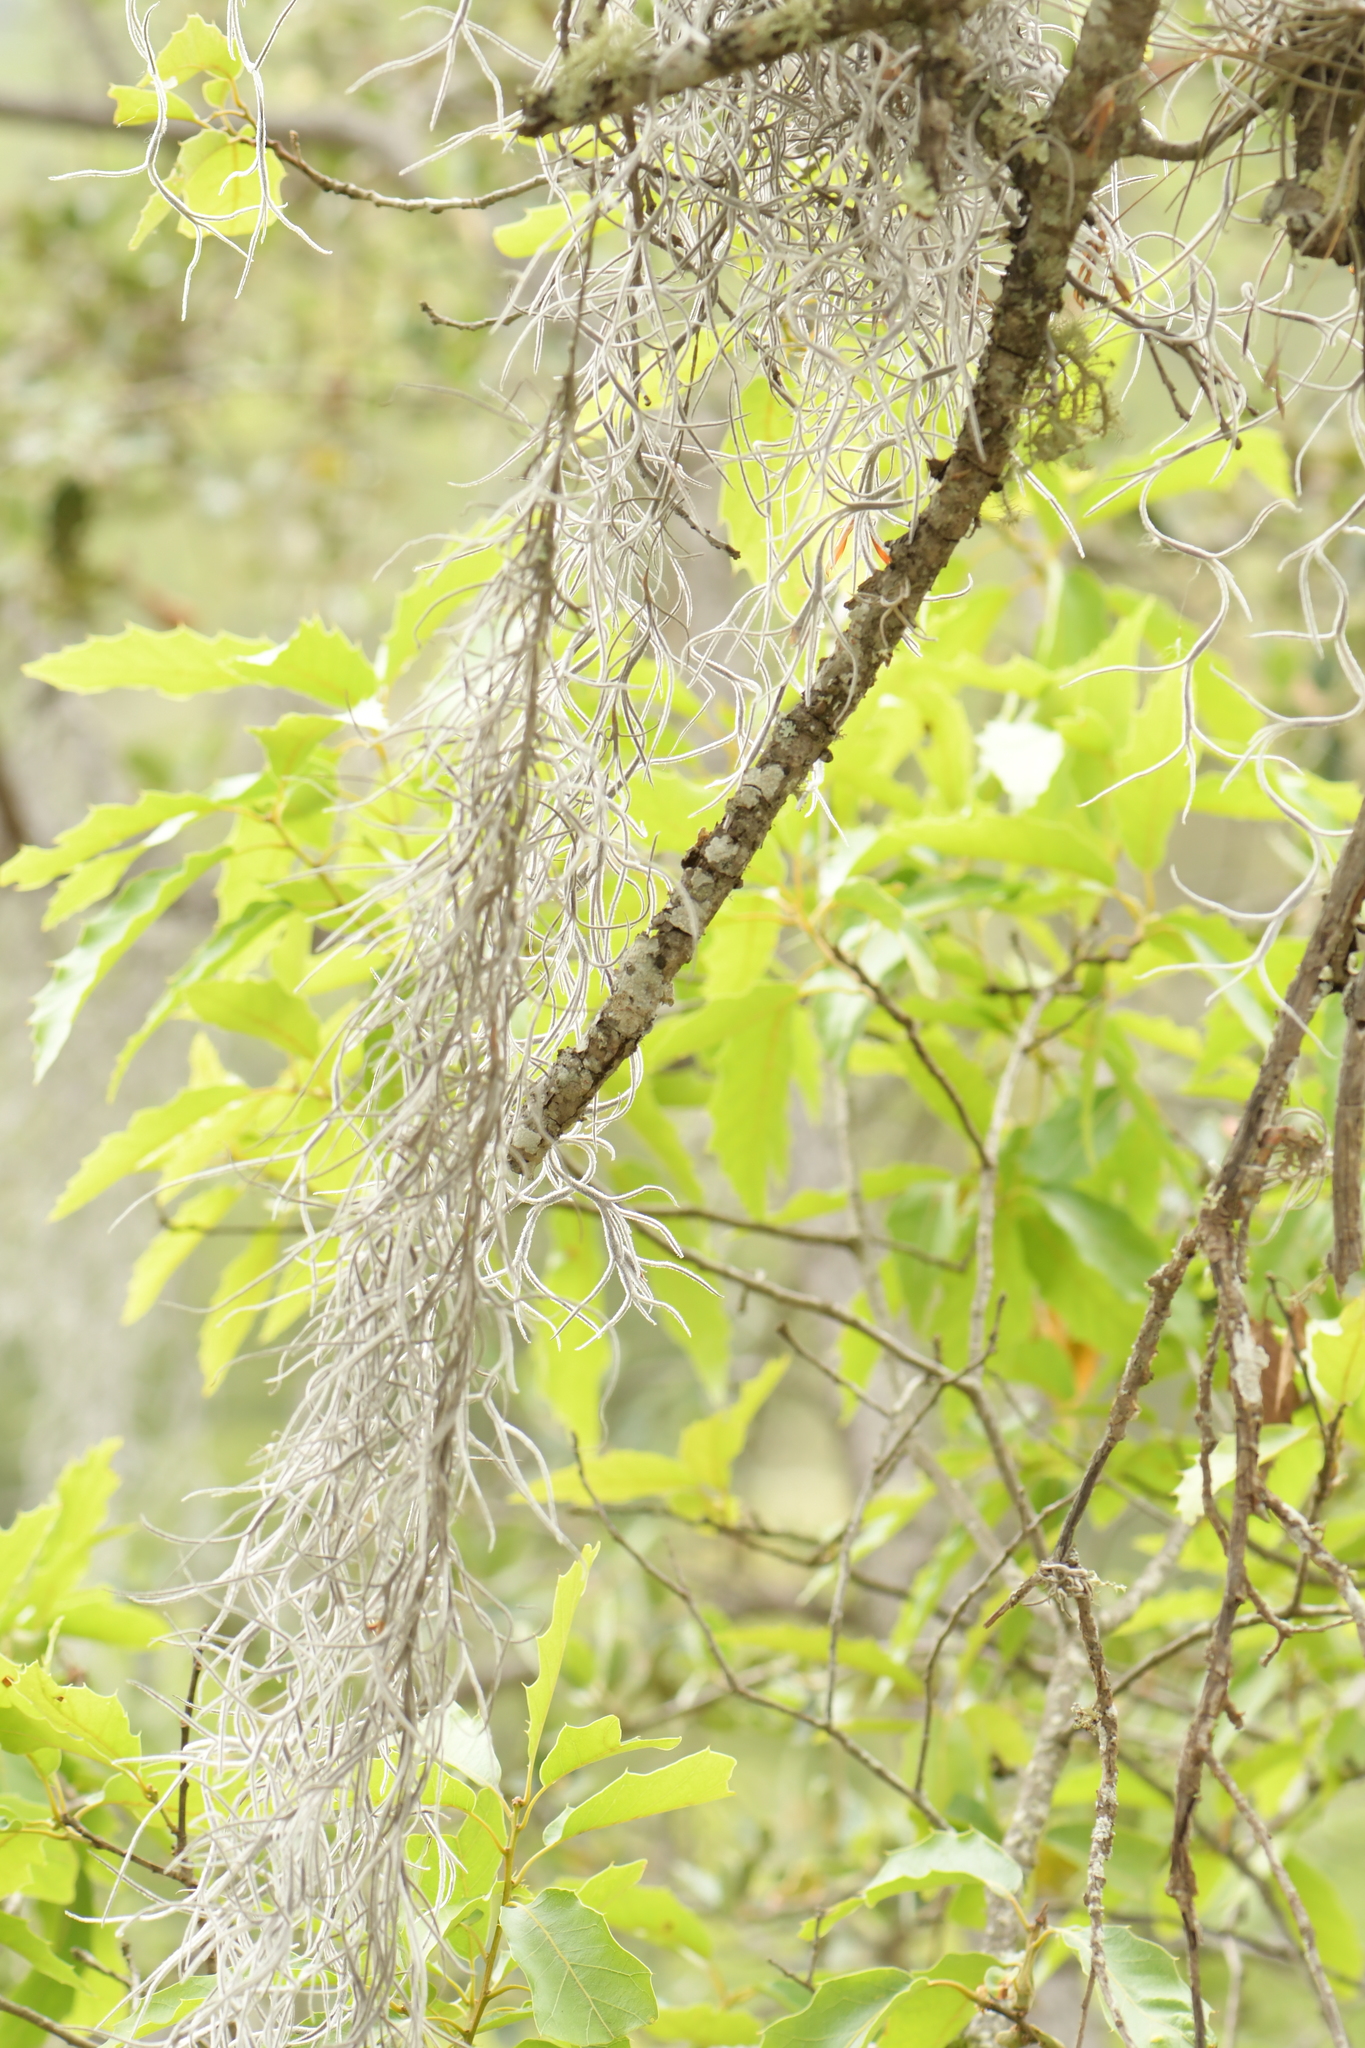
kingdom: Plantae
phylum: Tracheophyta
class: Liliopsida
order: Poales
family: Bromeliaceae
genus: Tillandsia
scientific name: Tillandsia usneoides
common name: Spanish moss
